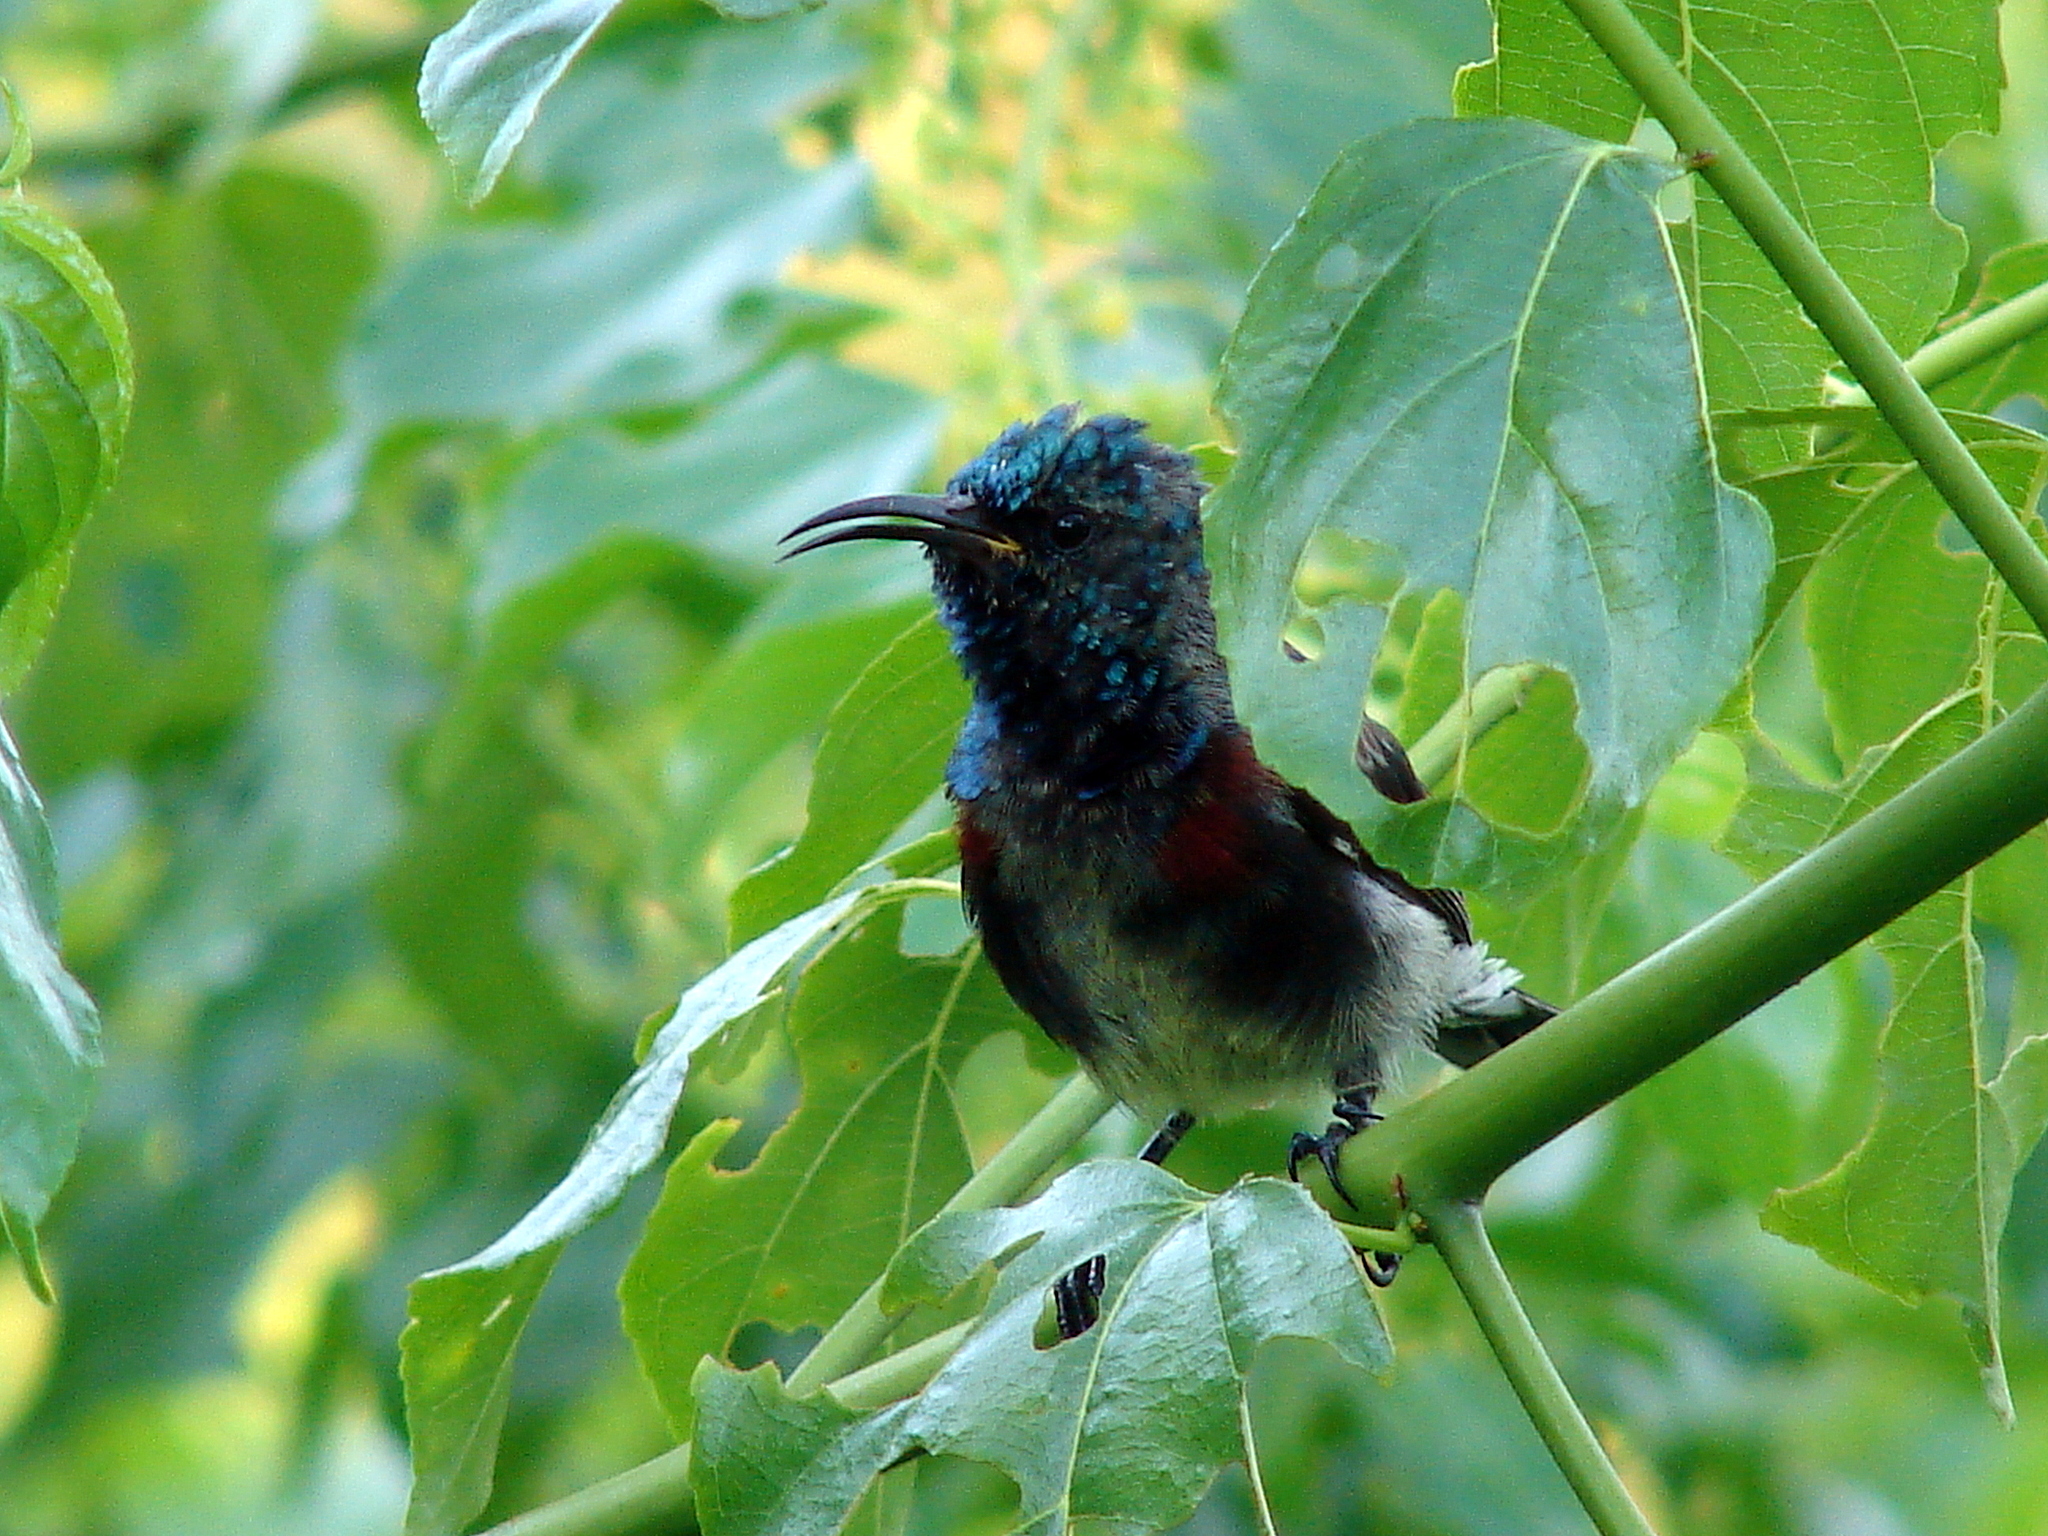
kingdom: Animalia
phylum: Chordata
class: Aves
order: Passeriformes
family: Nectariniidae
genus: Cinnyris
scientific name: Cinnyris sovimanga
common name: Souimanga sunbird
